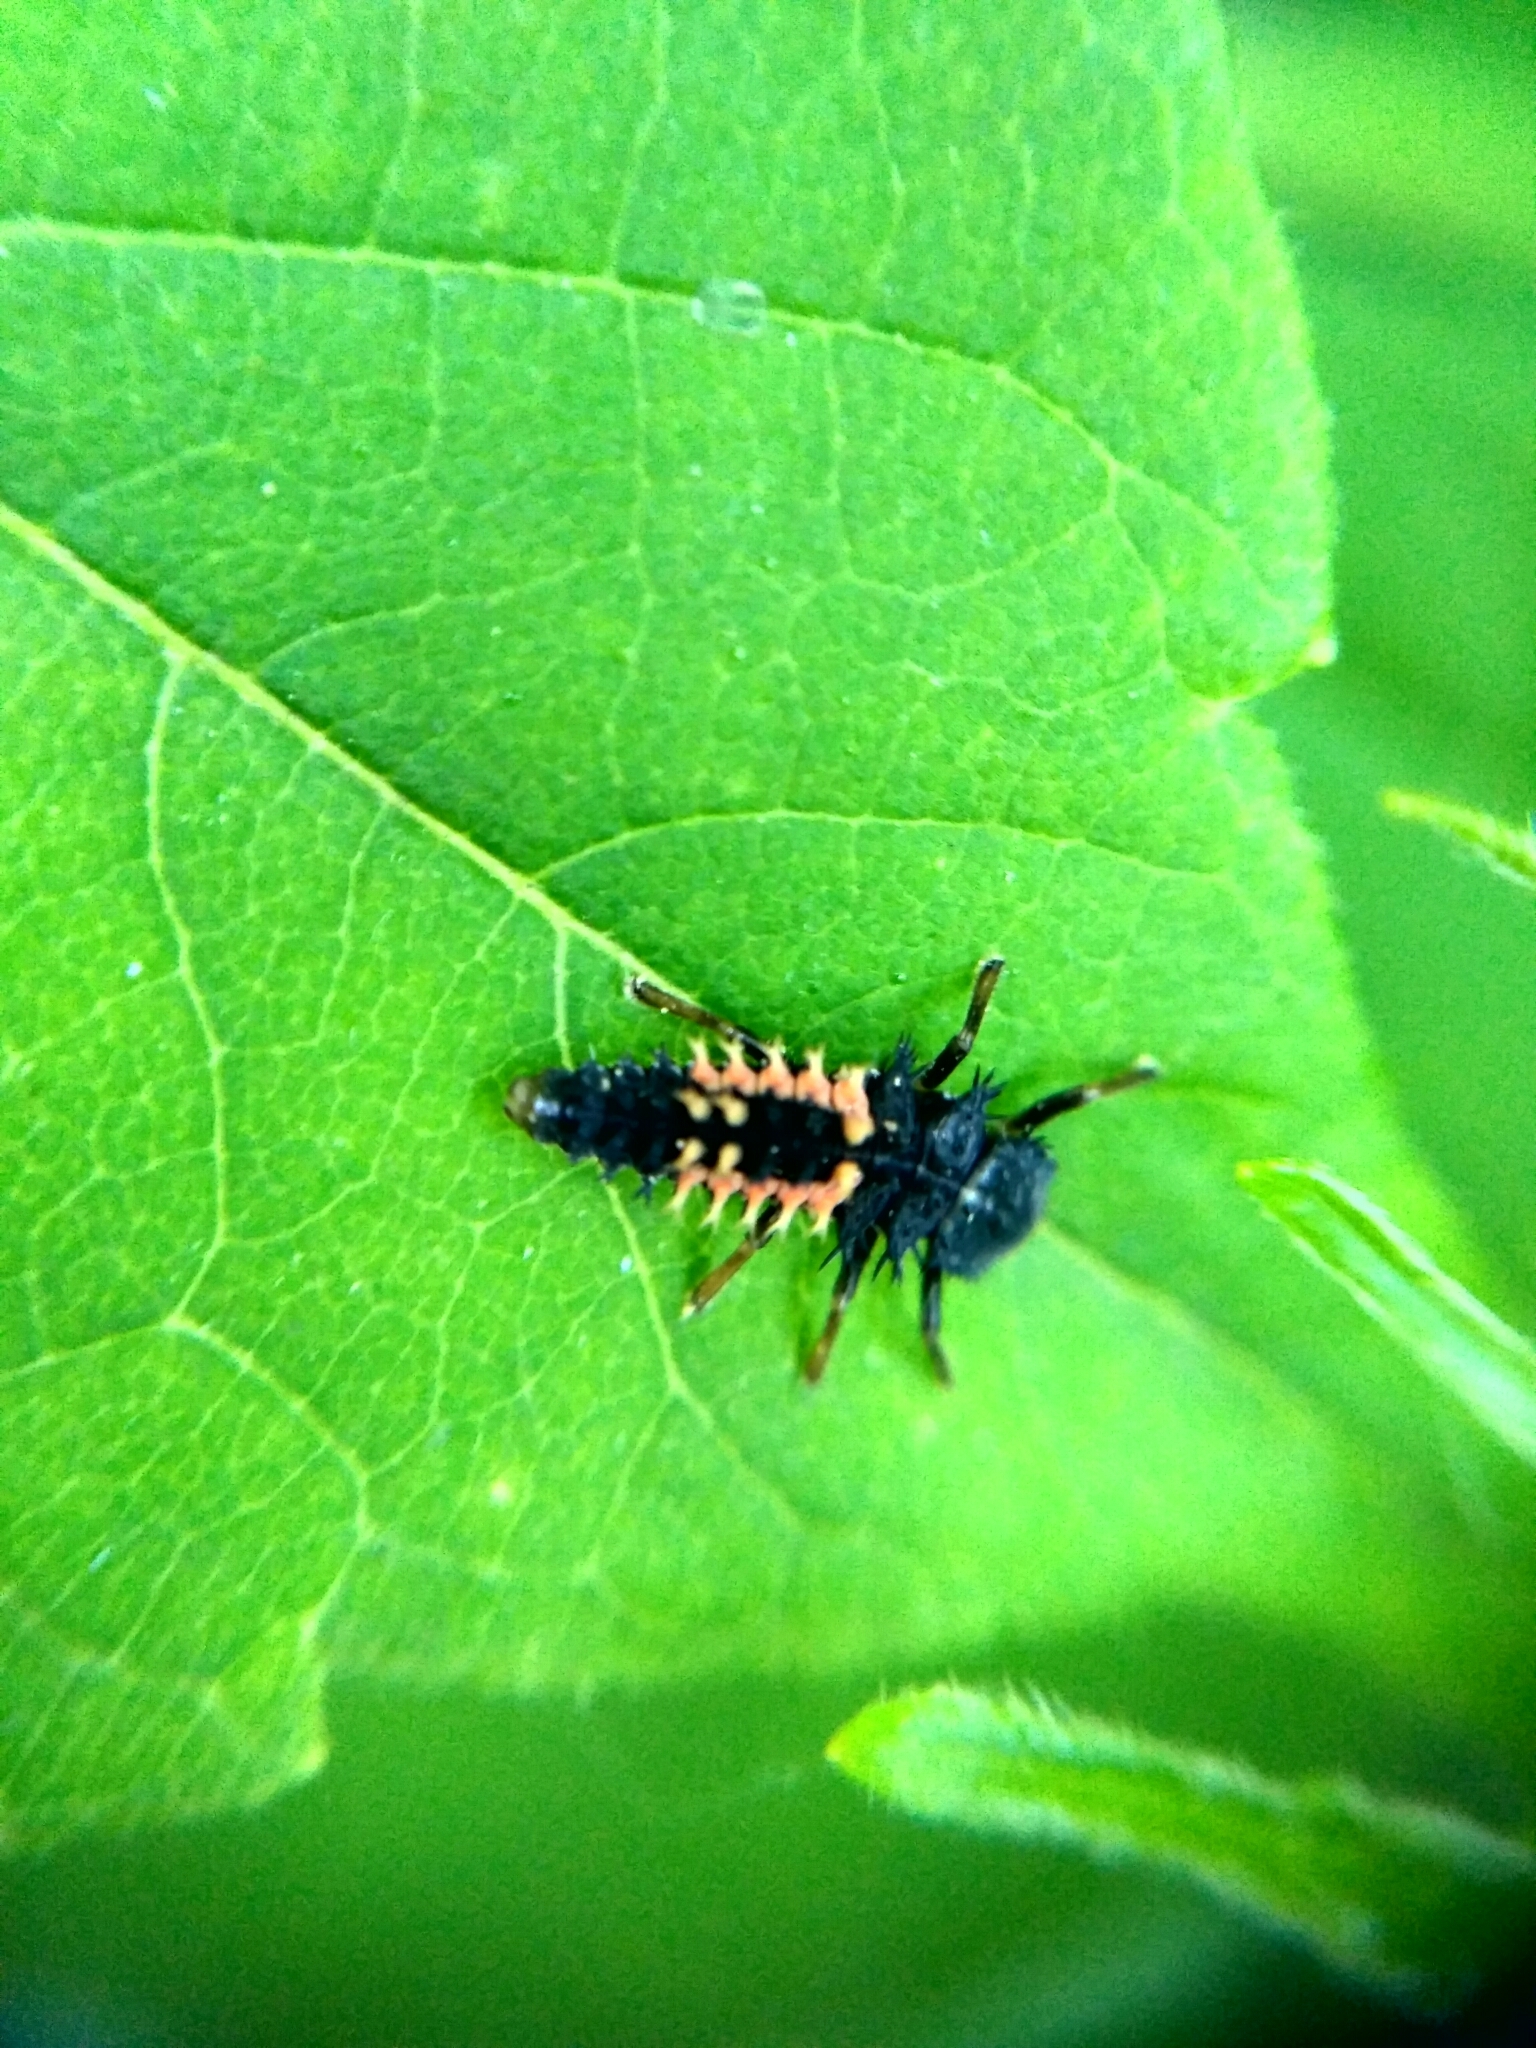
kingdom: Animalia
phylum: Arthropoda
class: Insecta
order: Coleoptera
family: Coccinellidae
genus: Harmonia
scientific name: Harmonia axyridis
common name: Harlequin ladybird
